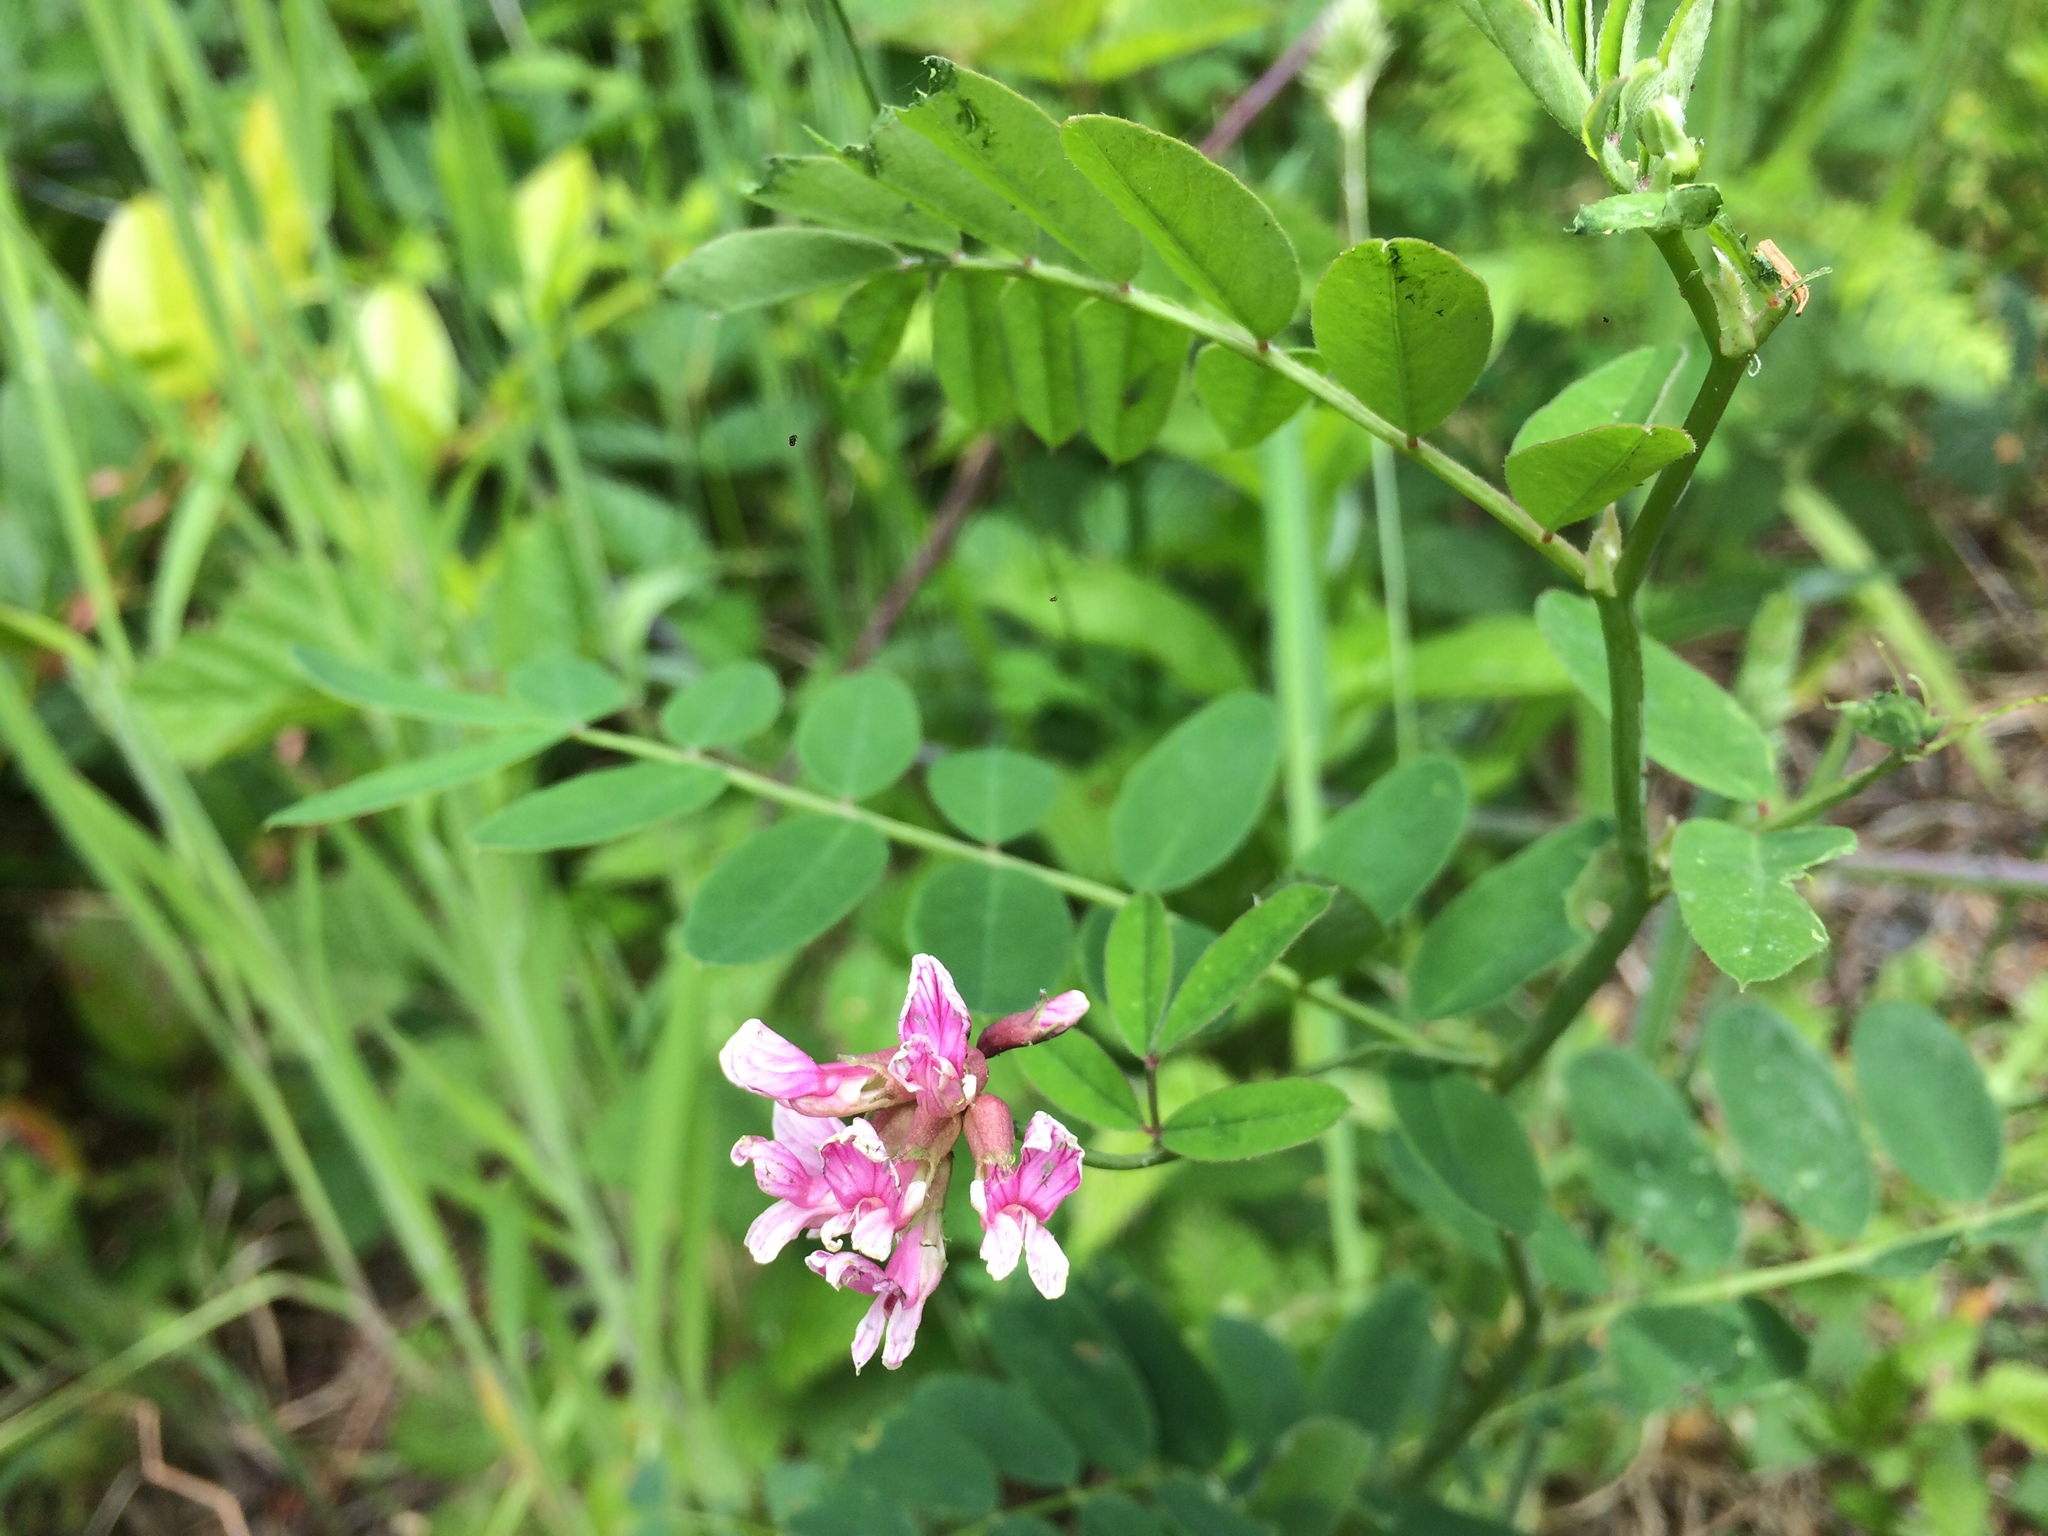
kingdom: Plantae
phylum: Tracheophyta
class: Magnoliopsida
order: Fabales
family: Fabaceae
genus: Hosackia
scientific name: Hosackia rosea
